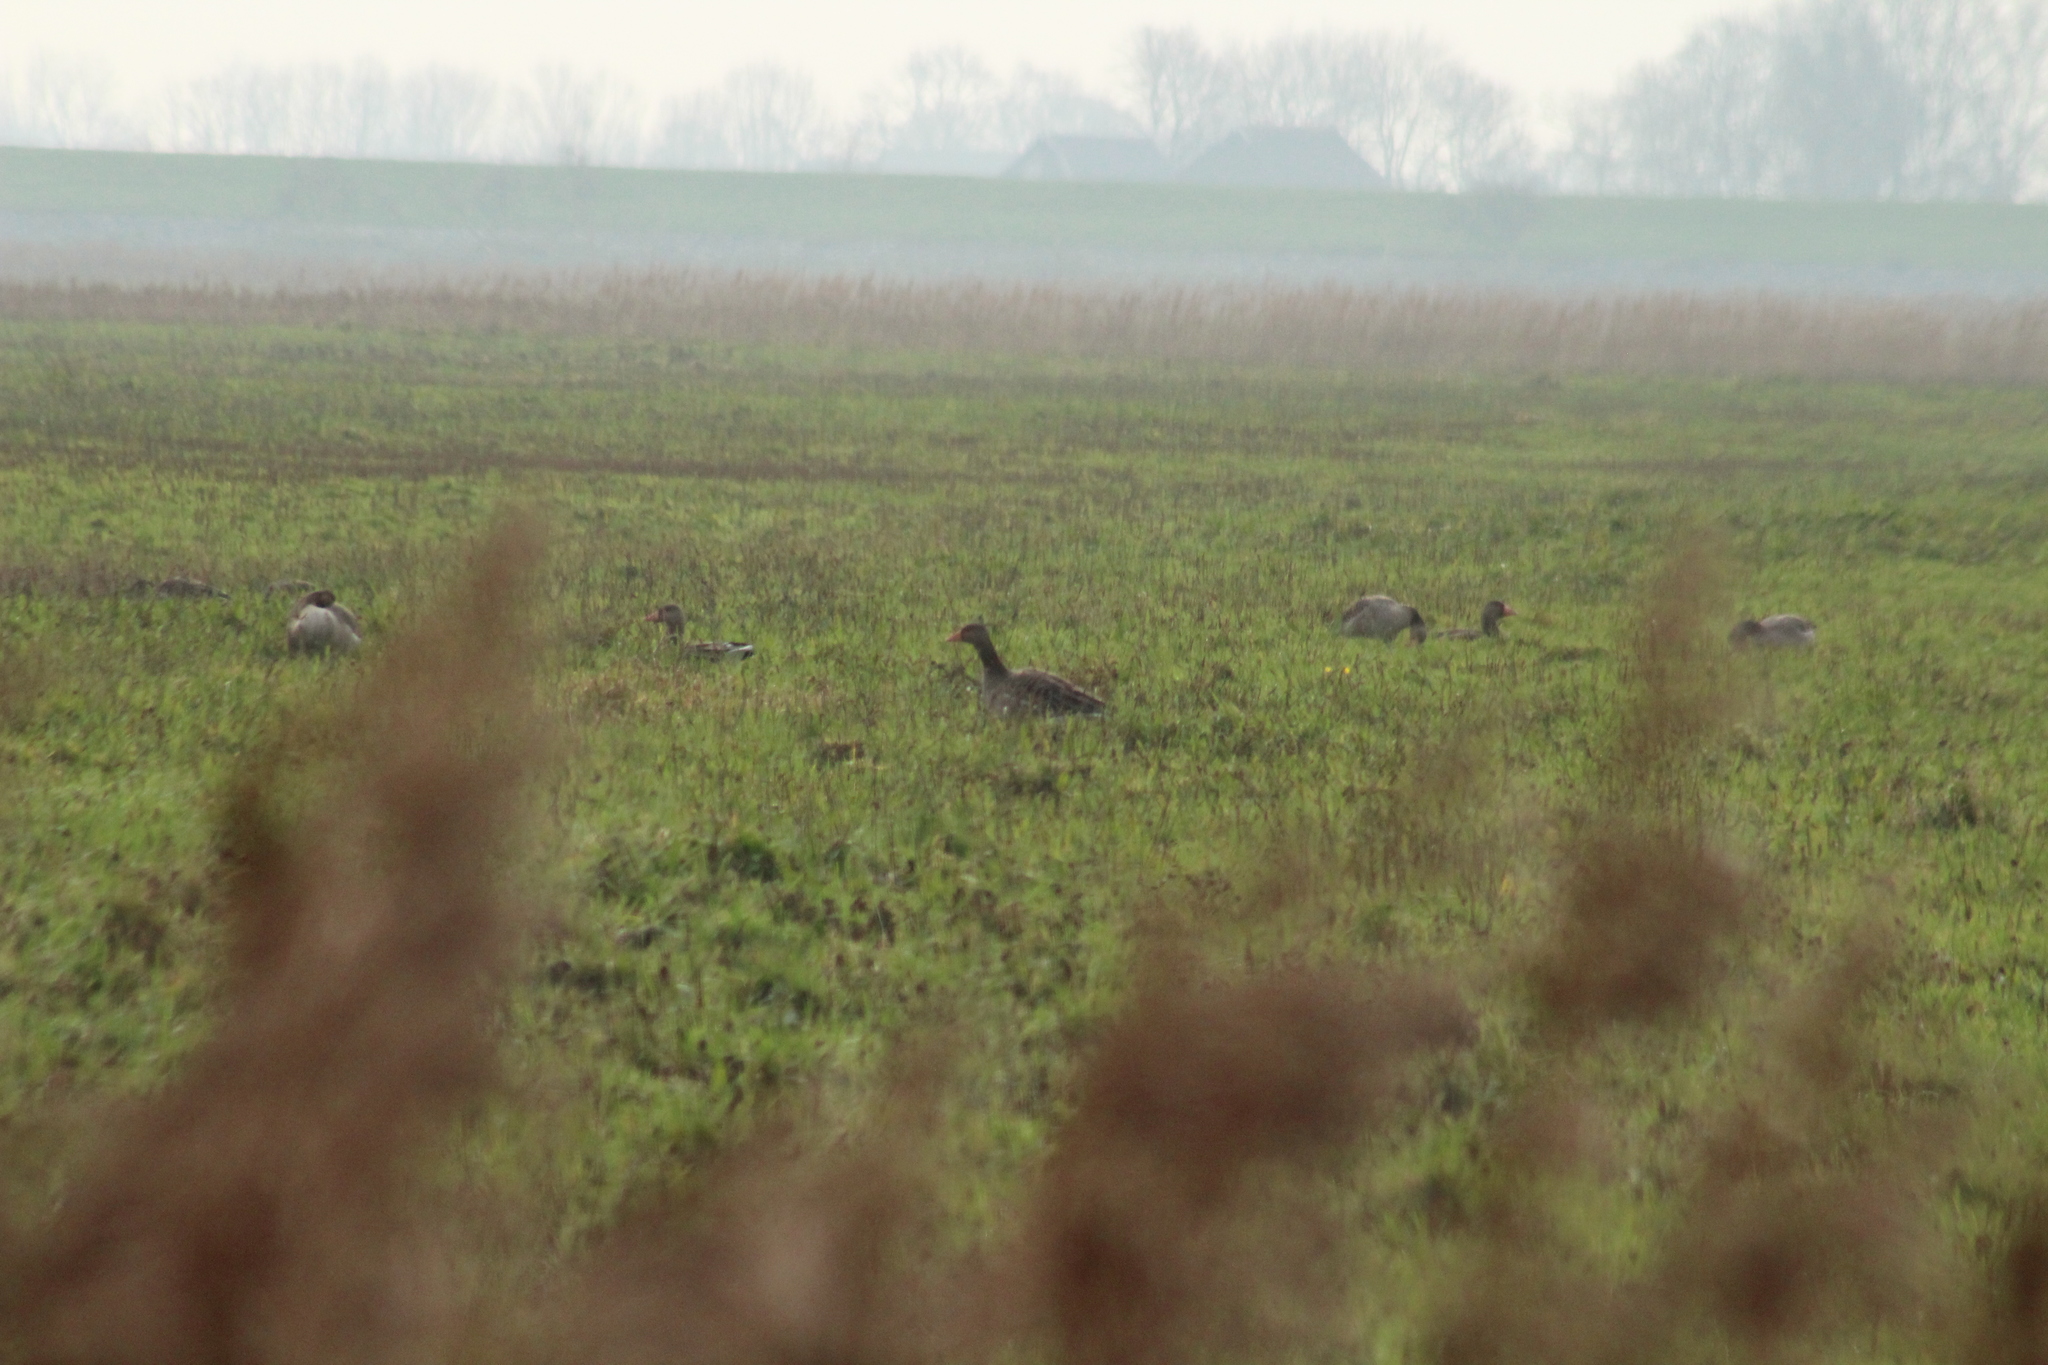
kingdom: Animalia
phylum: Chordata
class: Aves
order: Anseriformes
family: Anatidae
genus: Anser
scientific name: Anser anser
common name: Greylag goose
